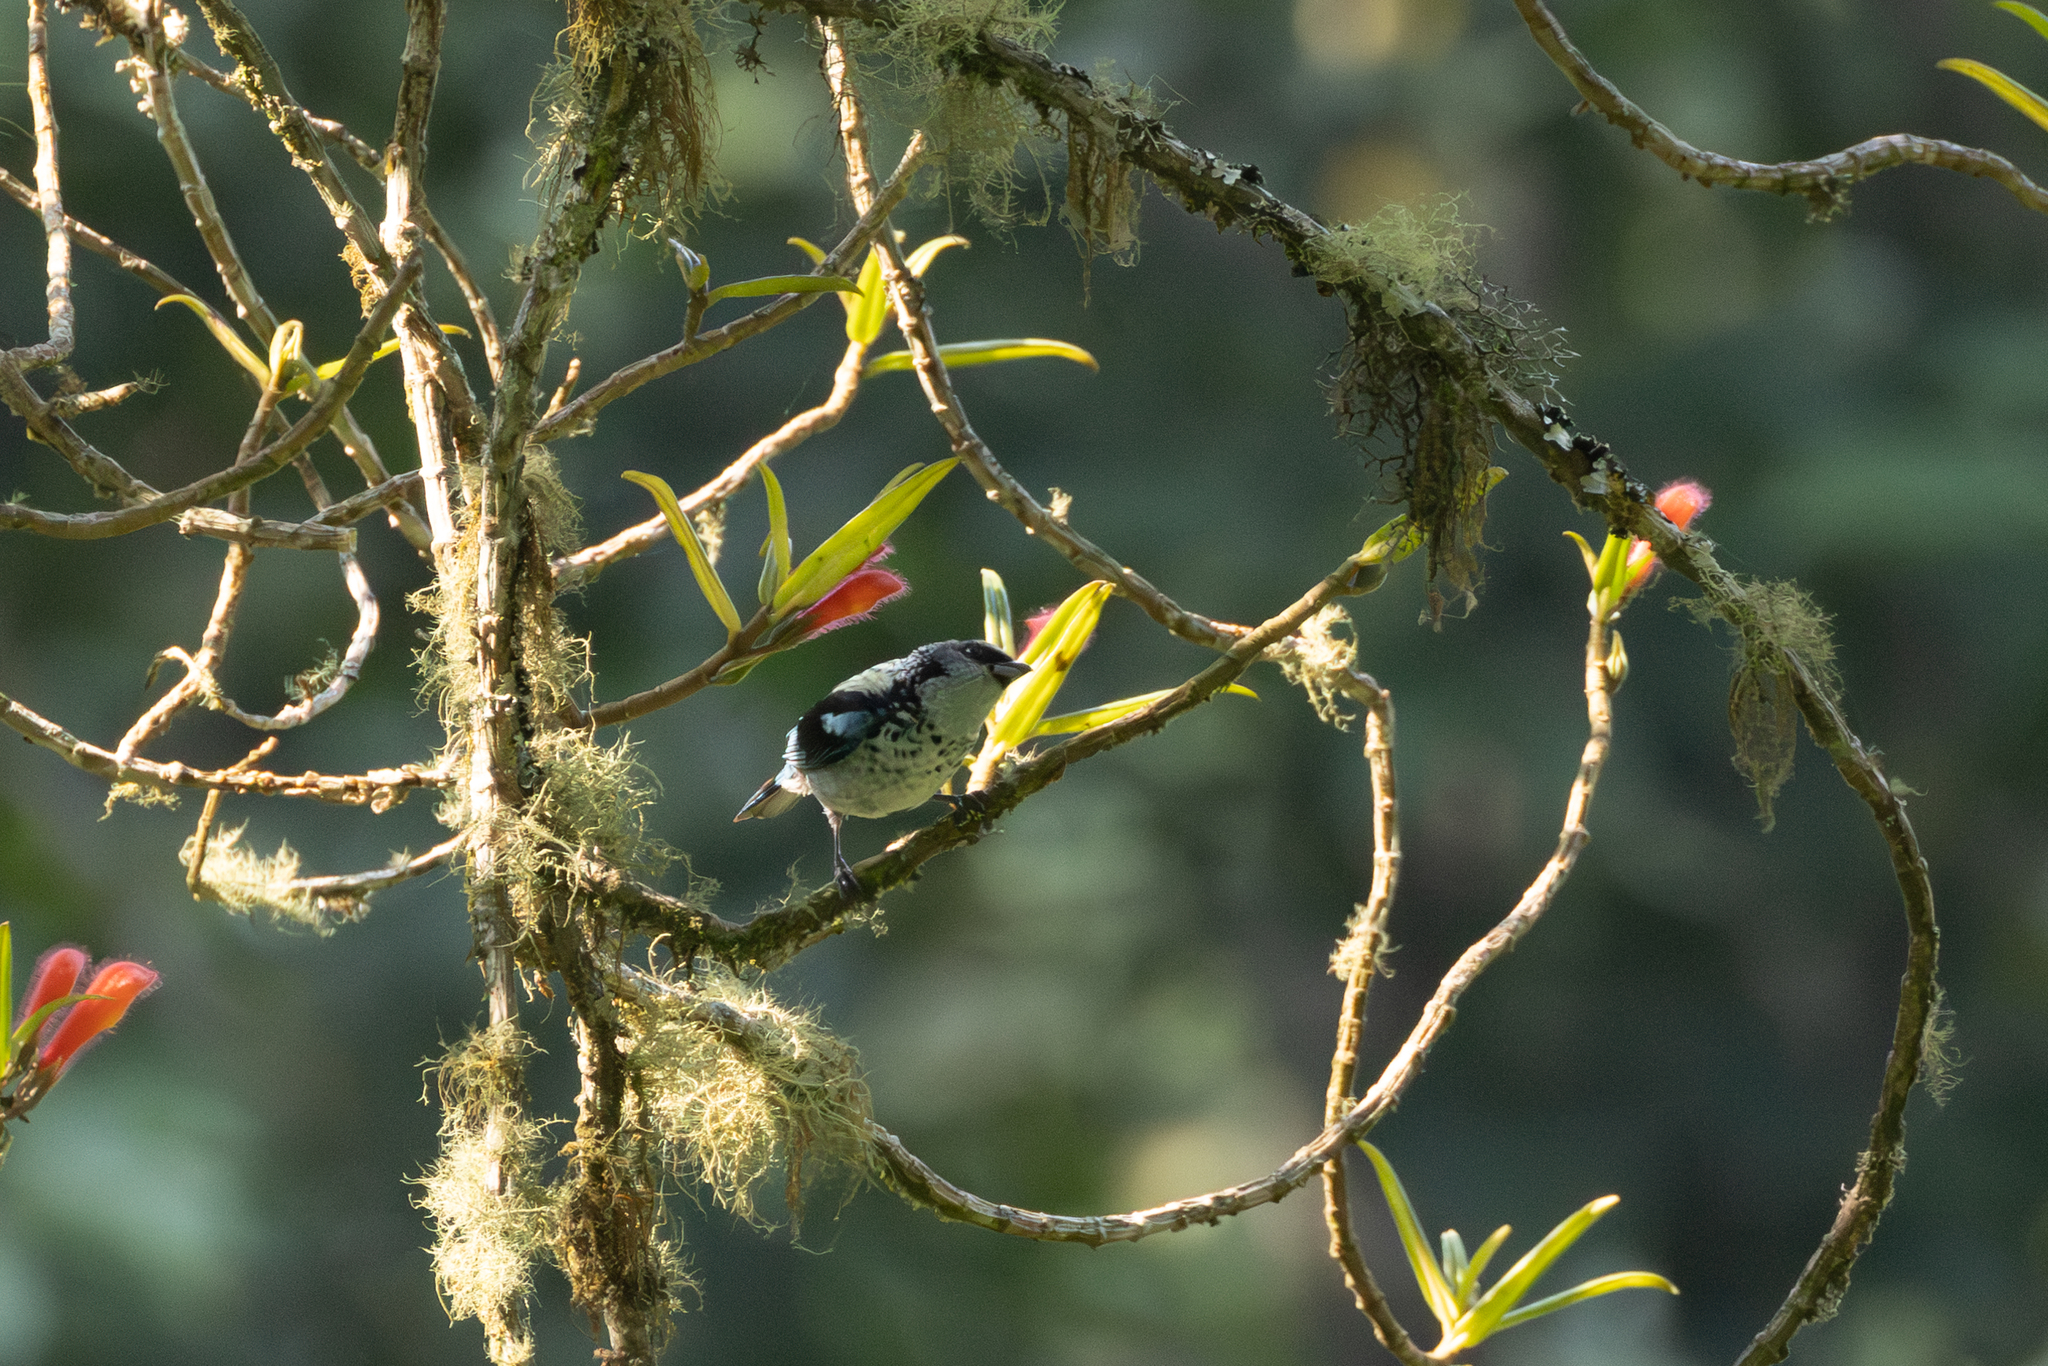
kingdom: Animalia
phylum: Chordata
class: Aves
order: Passeriformes
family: Thraupidae
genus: Poecilostreptus
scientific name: Poecilostreptus cabanisi
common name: Azure-rumped tanager
